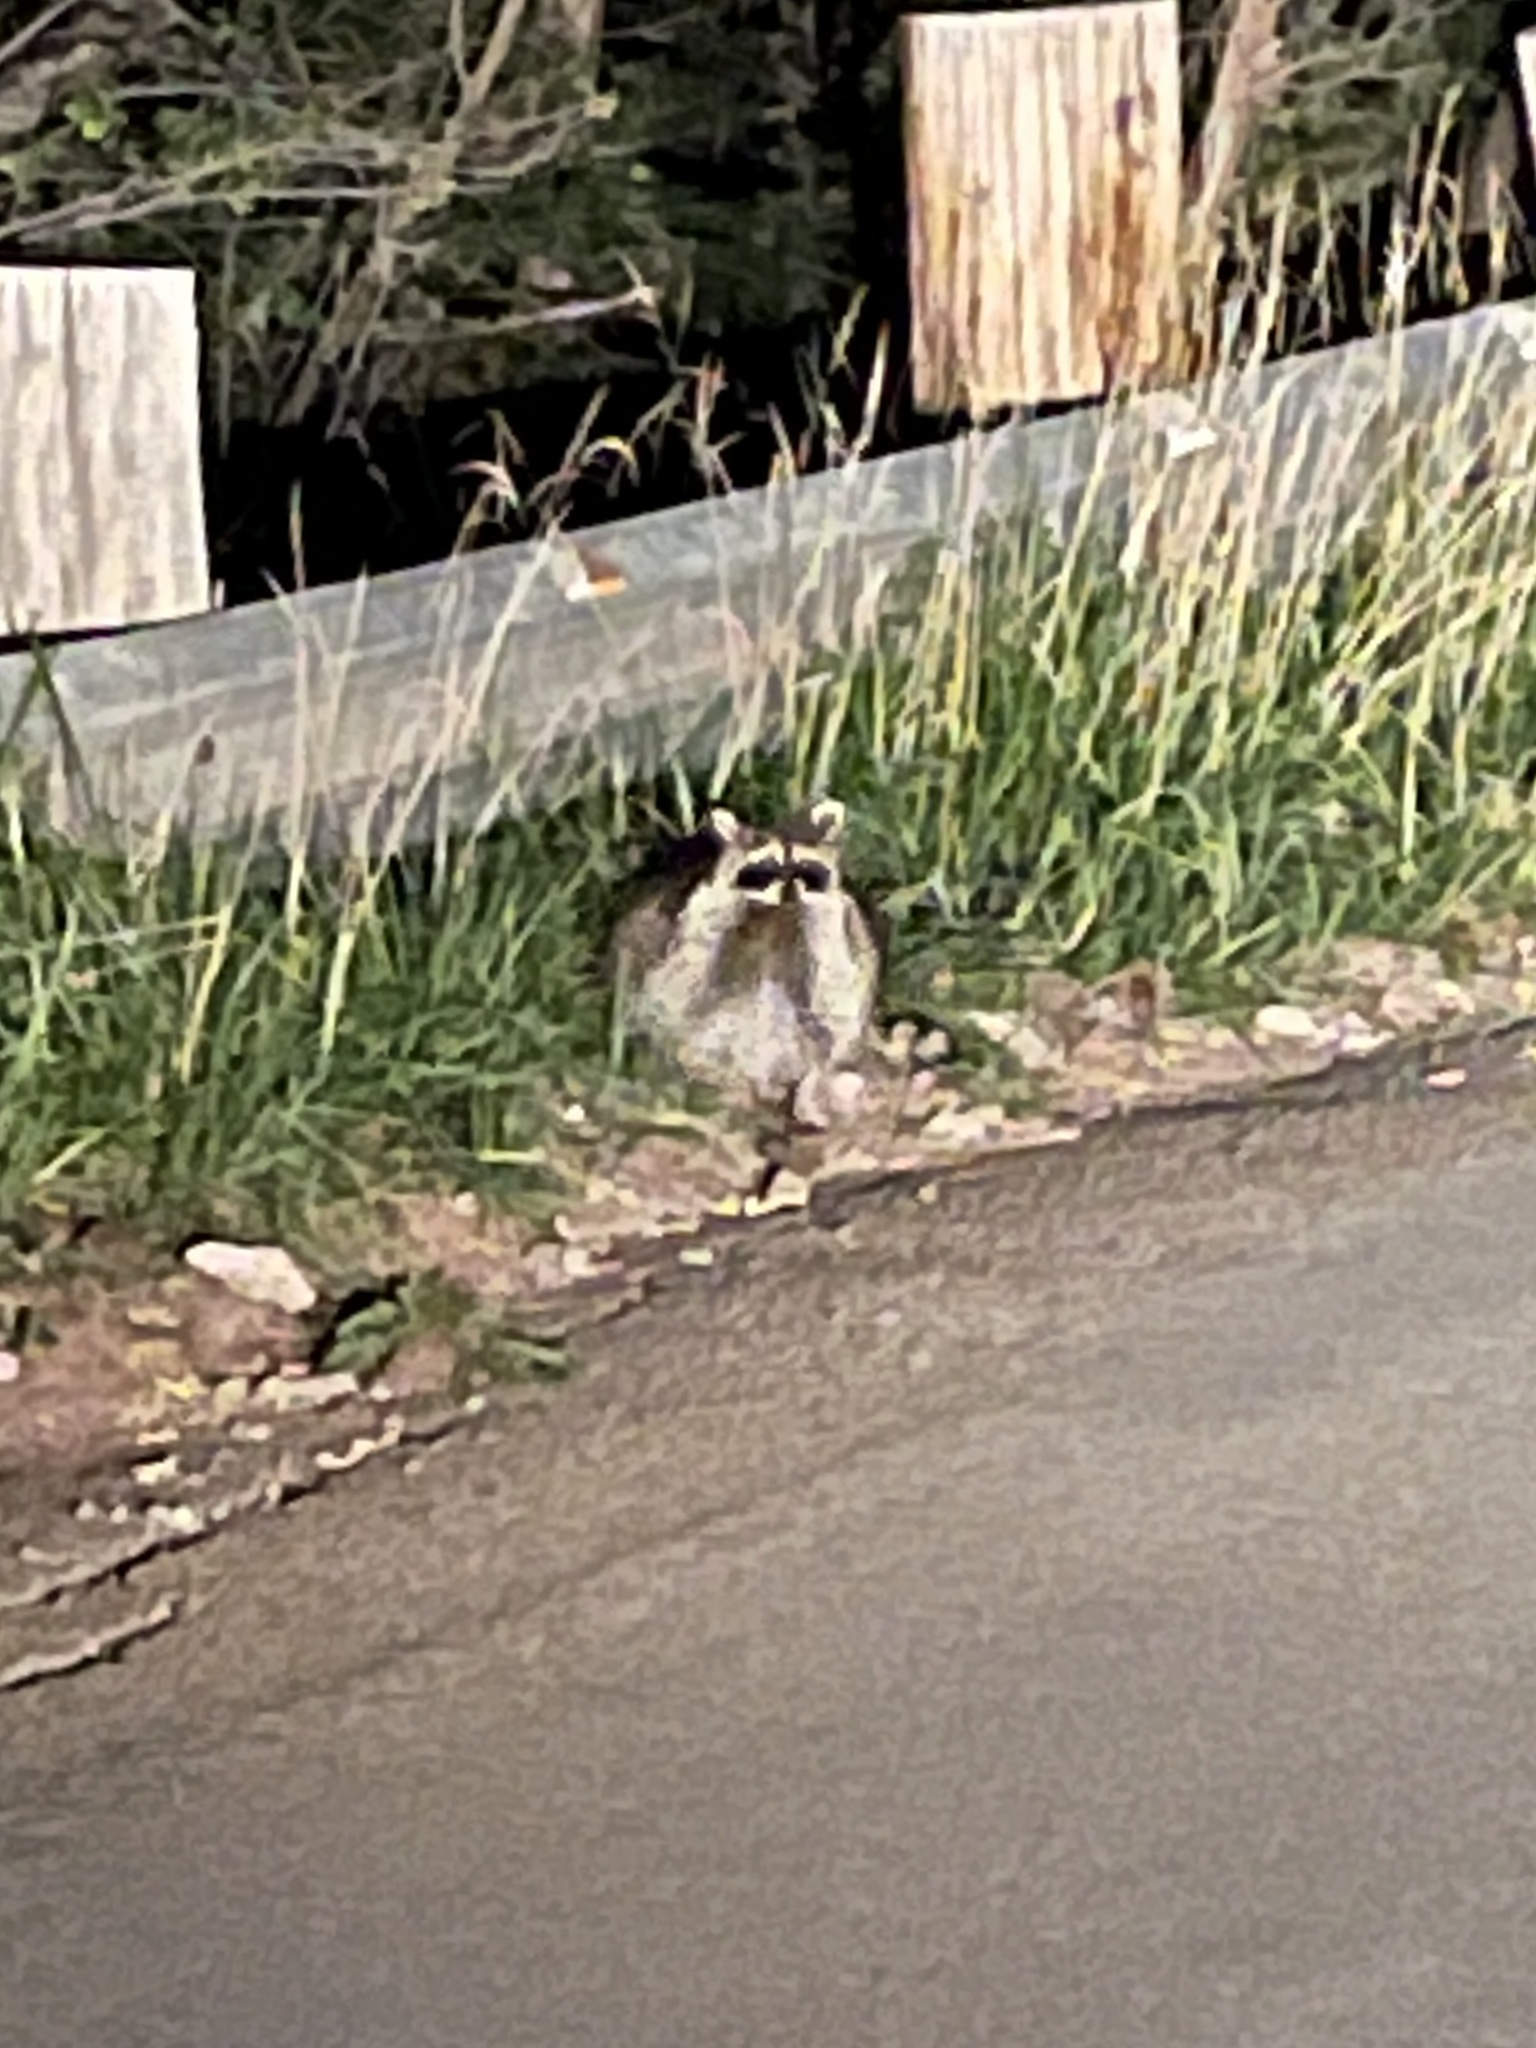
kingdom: Animalia
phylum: Chordata
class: Mammalia
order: Carnivora
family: Procyonidae
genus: Procyon
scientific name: Procyon lotor
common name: Raccoon
